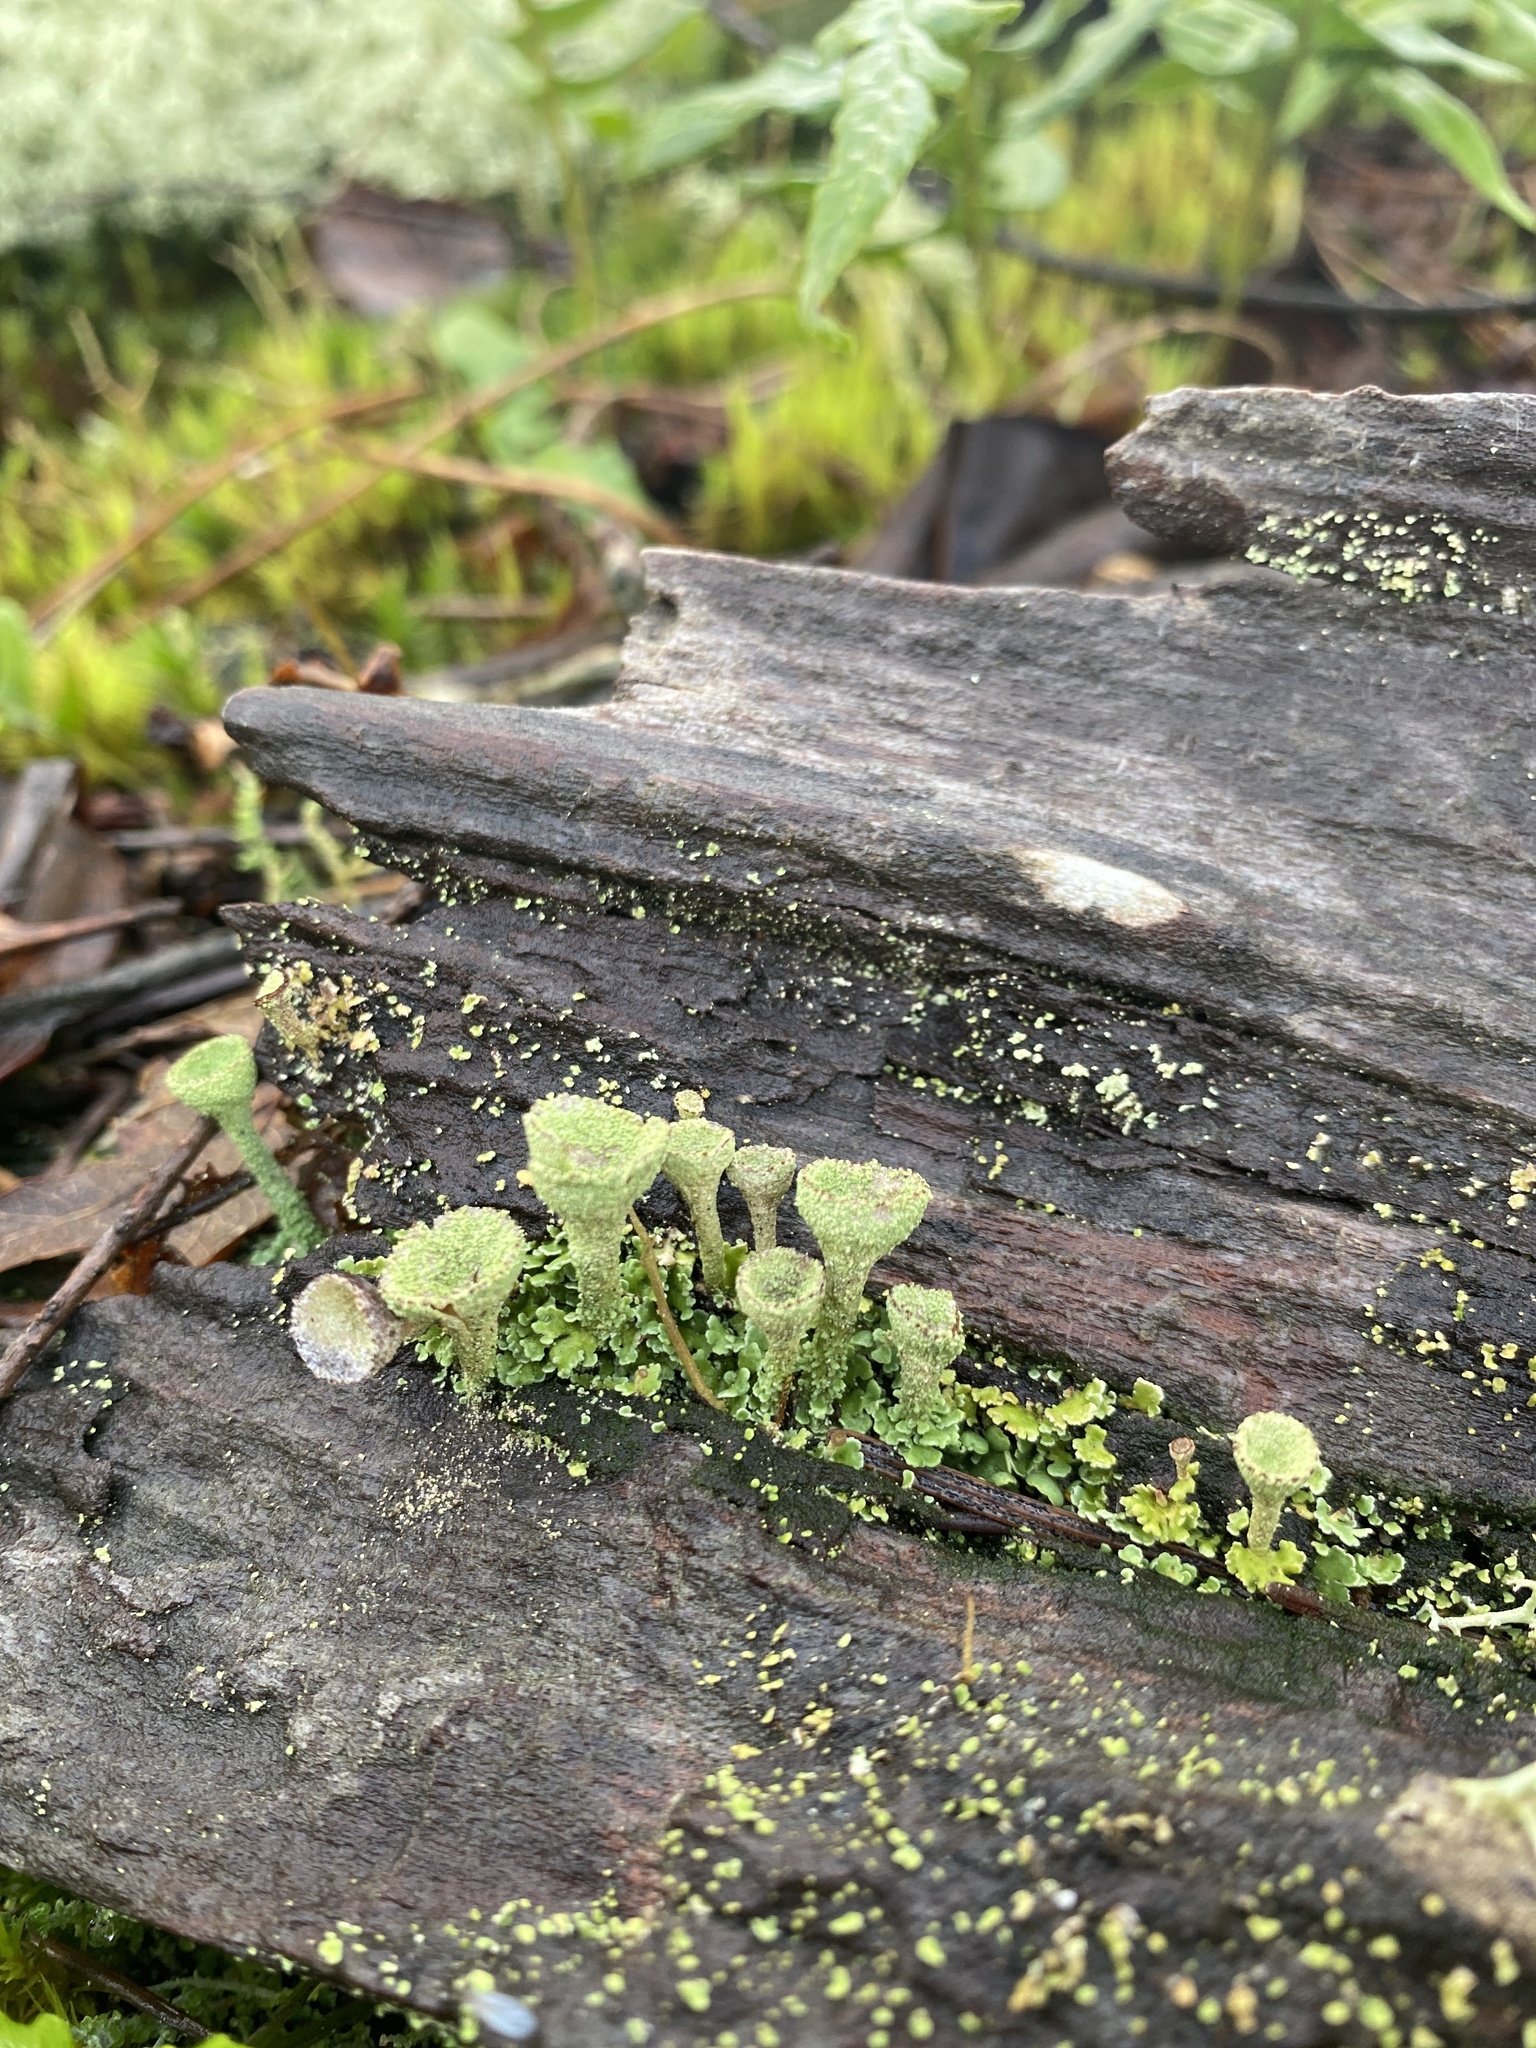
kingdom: Fungi
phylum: Ascomycota
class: Lecanoromycetes
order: Lecanorales
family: Cladoniaceae
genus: Cladonia
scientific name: Cladonia fimbriata
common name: Powdered trumpet lichen
